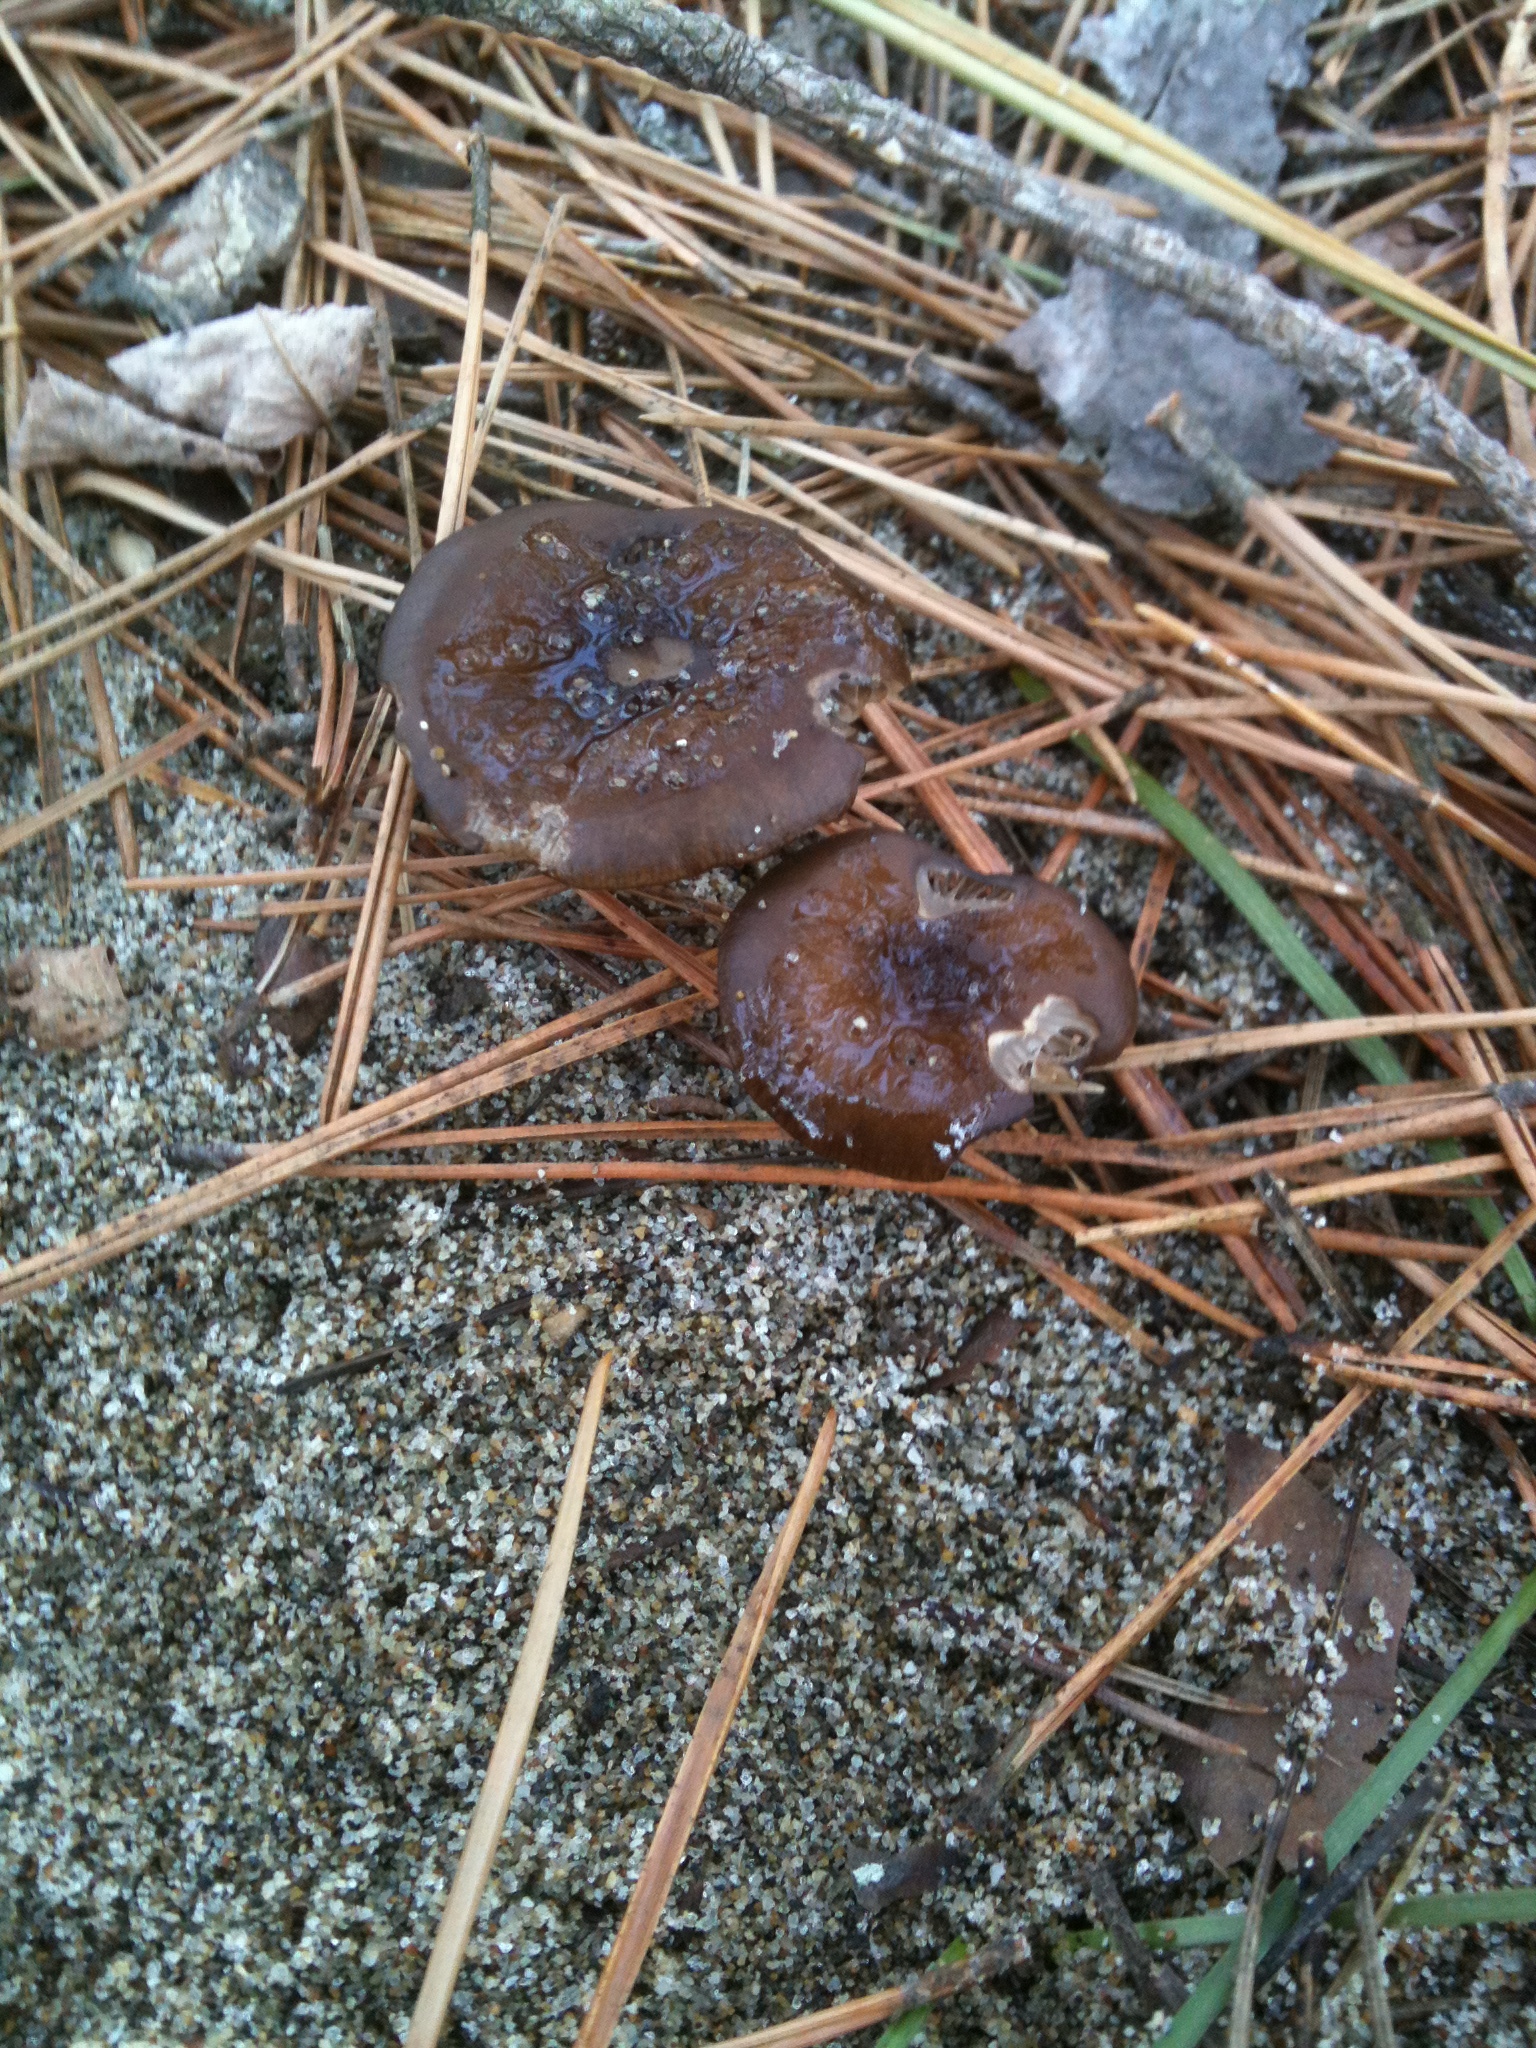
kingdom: Fungi
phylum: Basidiomycota
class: Agaricomycetes
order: Agaricales
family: Physalacriaceae
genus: Strobilurus
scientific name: Strobilurus stephanocystis
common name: Russian conecap
